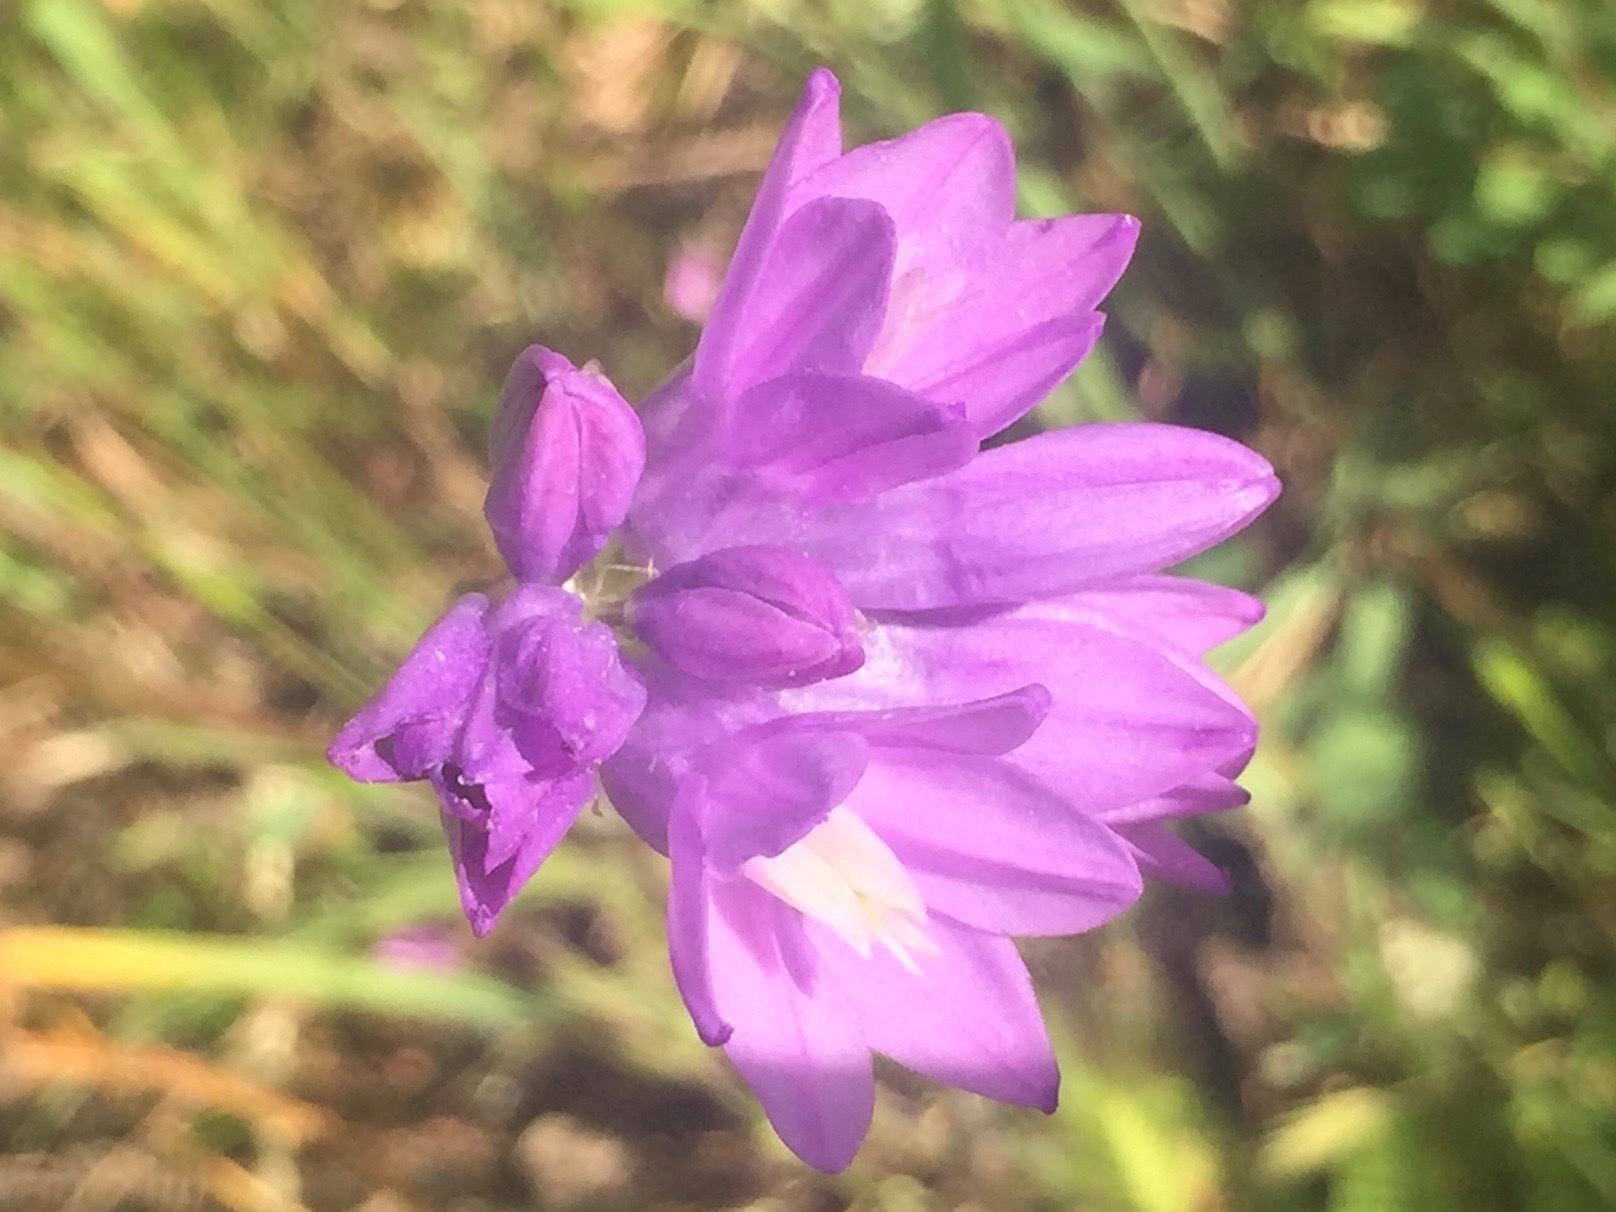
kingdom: Plantae
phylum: Tracheophyta
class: Liliopsida
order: Asparagales
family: Asparagaceae
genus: Dipterostemon
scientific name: Dipterostemon capitatus
